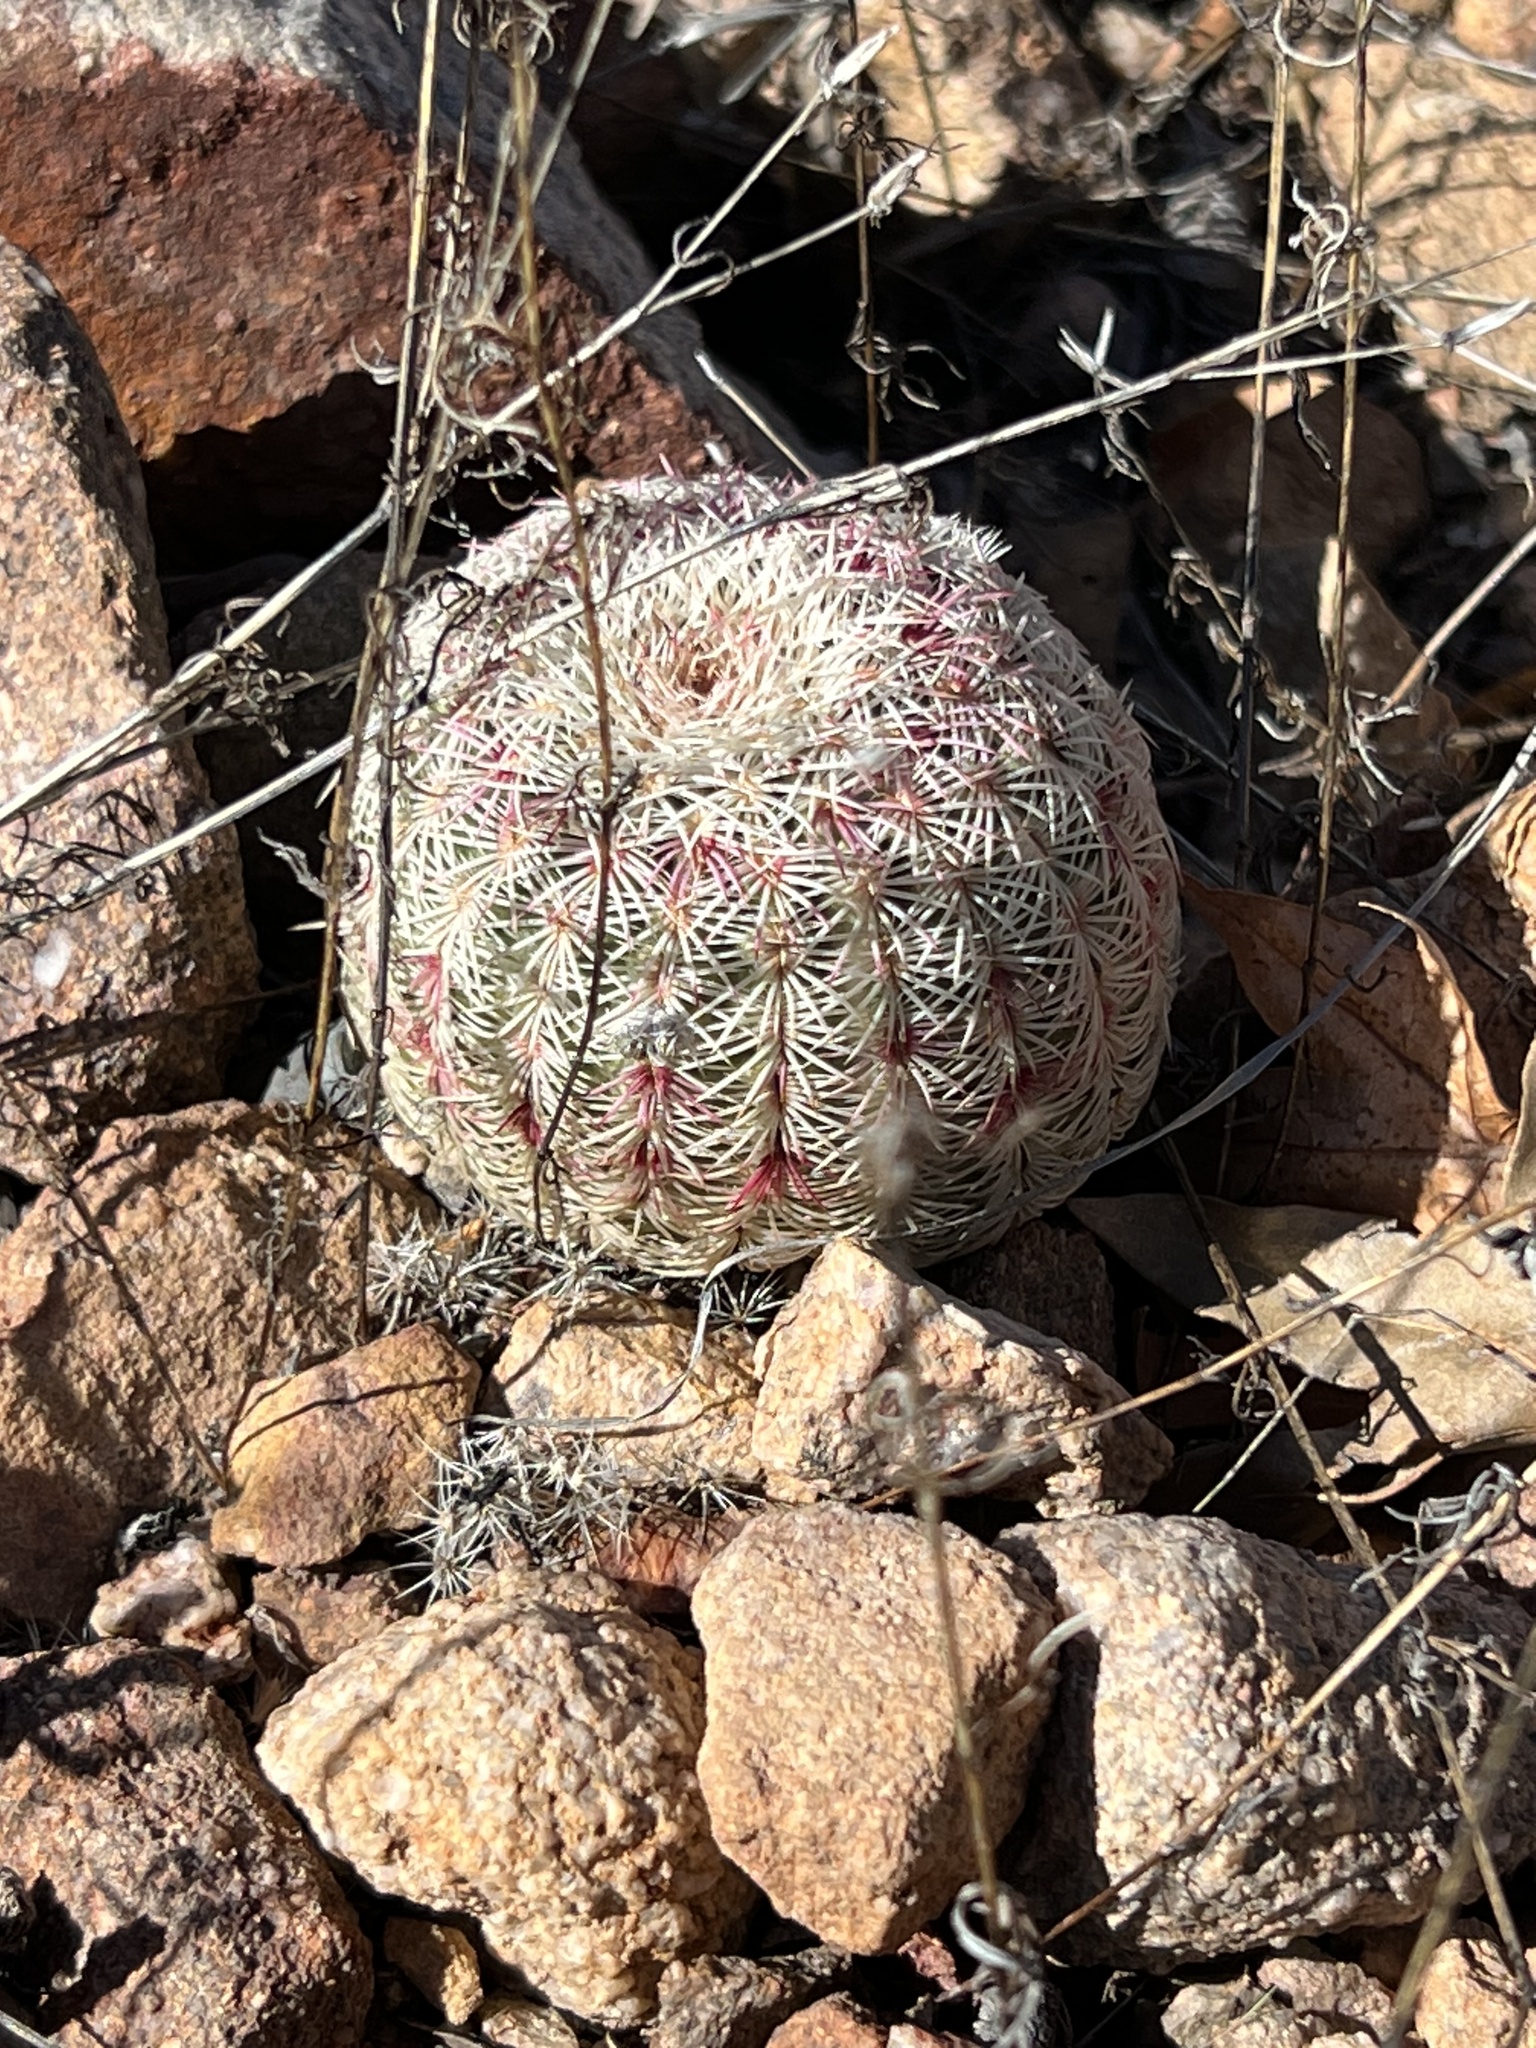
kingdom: Plantae
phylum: Tracheophyta
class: Magnoliopsida
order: Caryophyllales
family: Cactaceae
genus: Echinocereus
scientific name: Echinocereus rigidissimus
